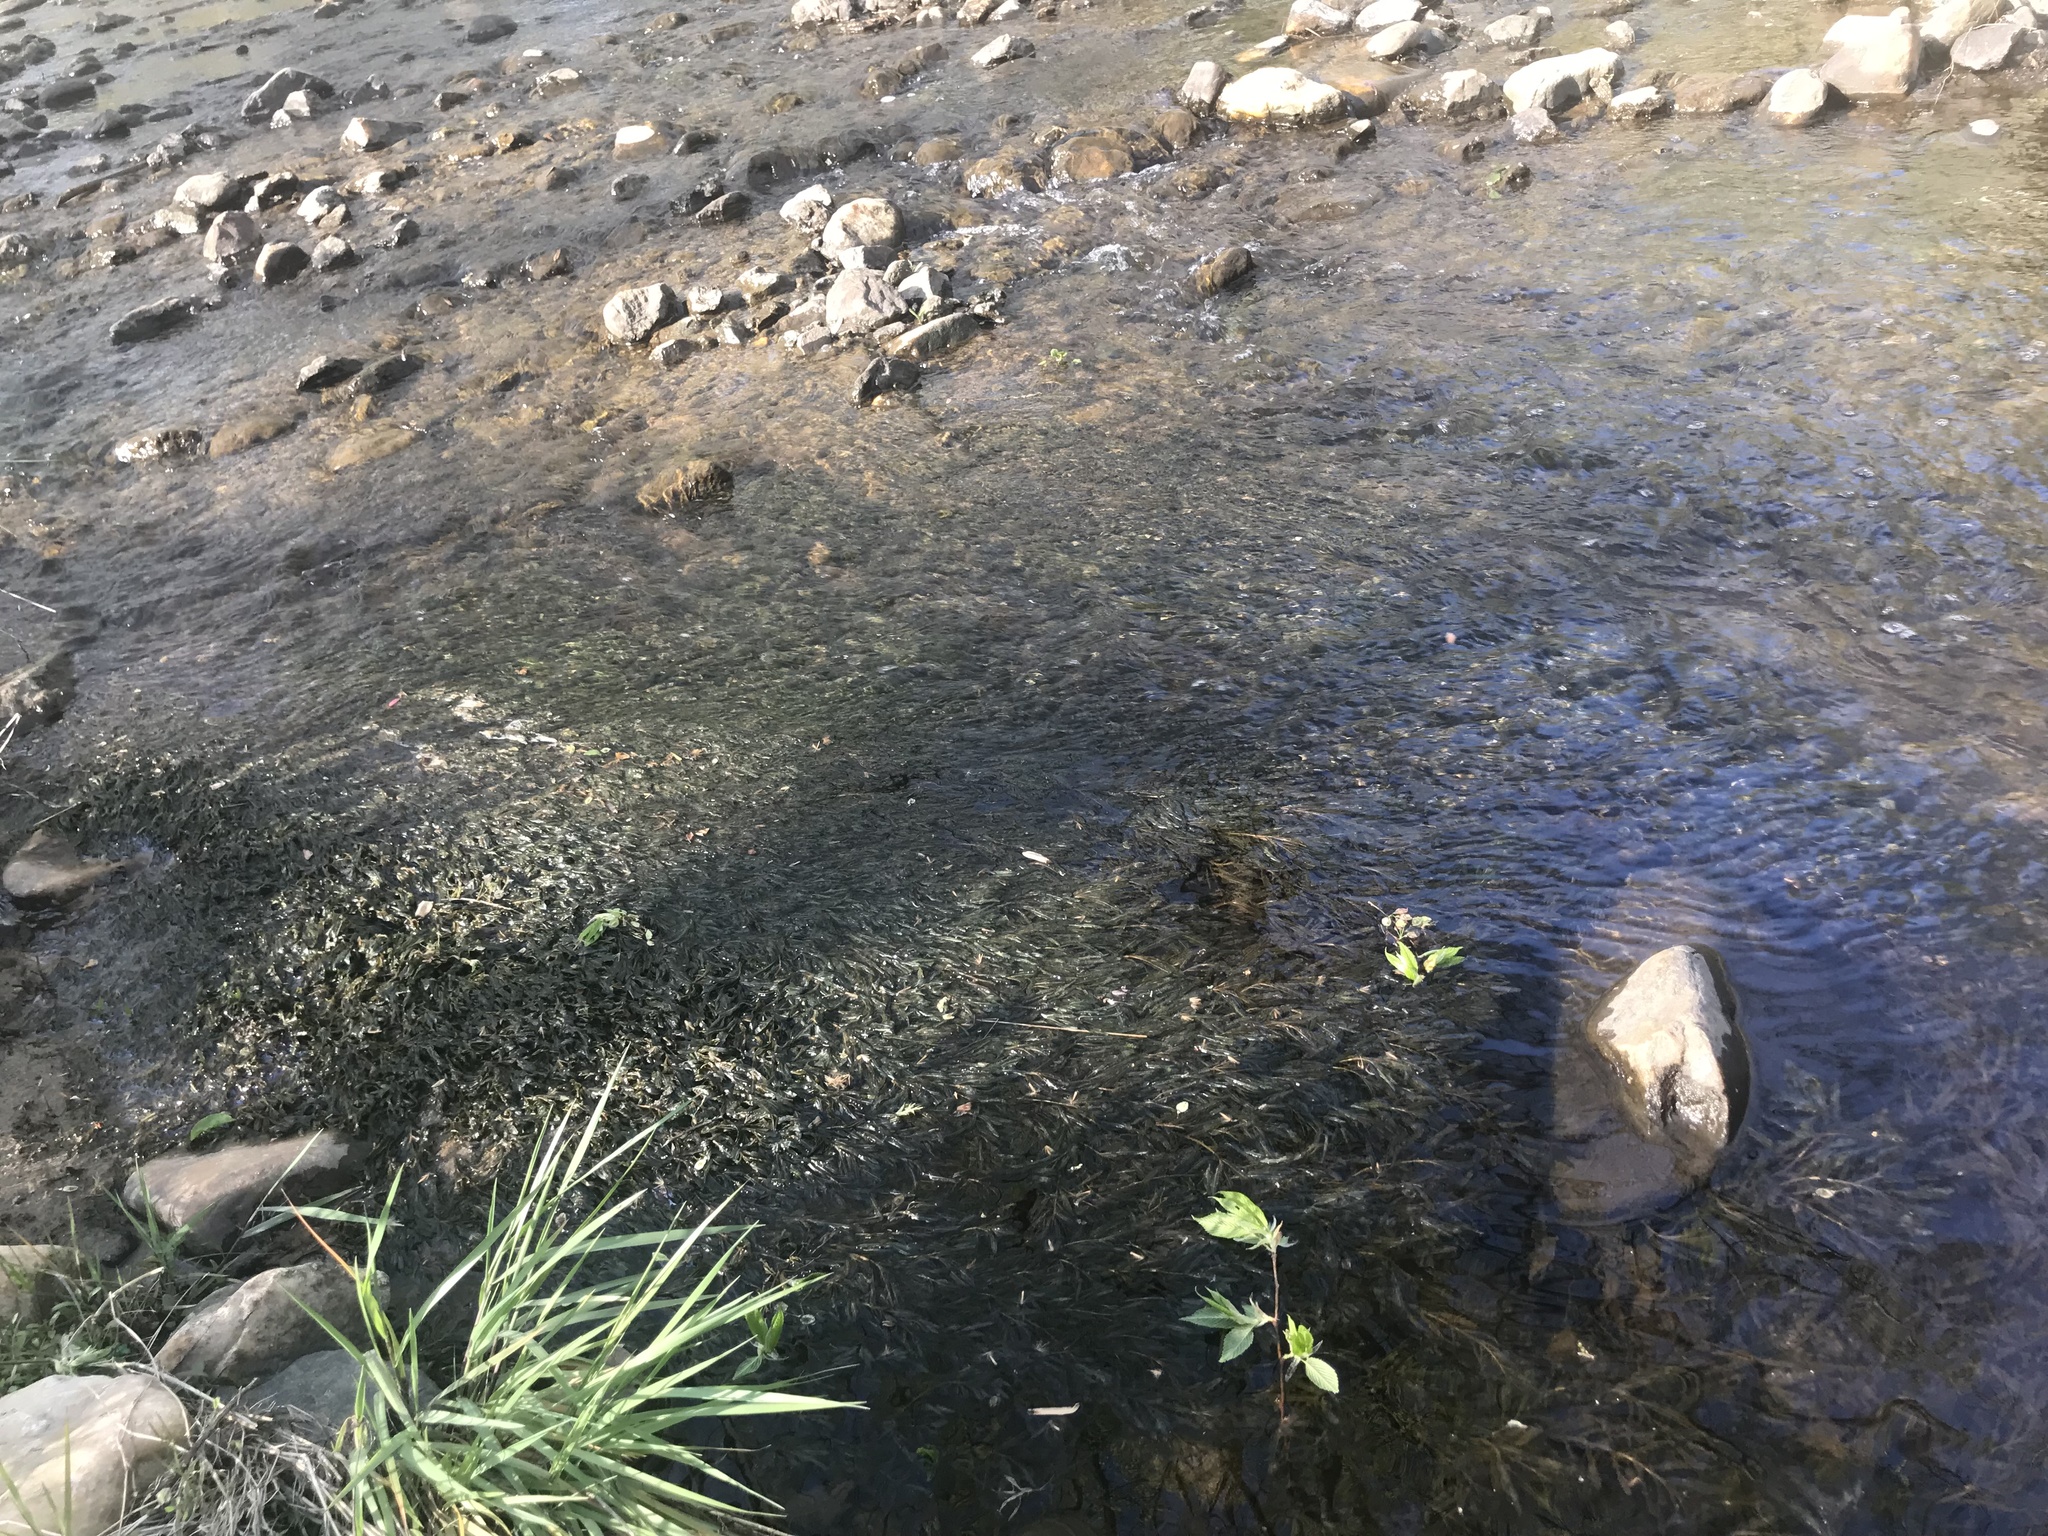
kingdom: Plantae
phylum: Tracheophyta
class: Liliopsida
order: Alismatales
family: Potamogetonaceae
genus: Potamogeton
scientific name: Potamogeton crispus
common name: Curled pondweed
